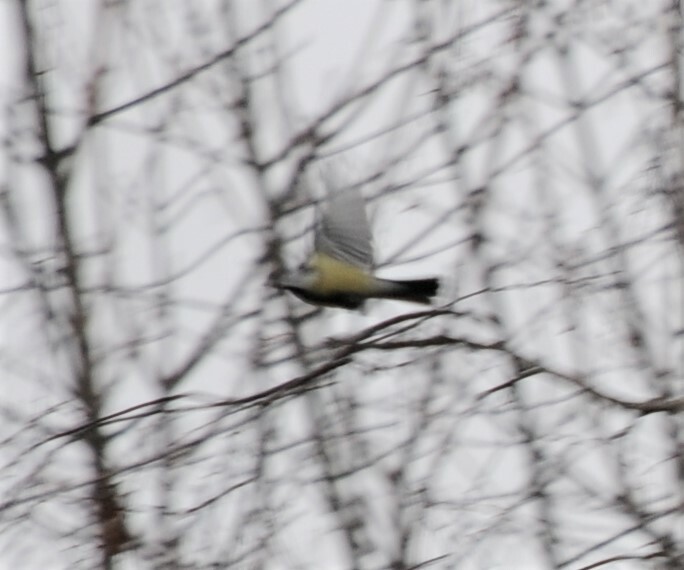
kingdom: Animalia
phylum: Chordata
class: Aves
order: Passeriformes
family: Paridae
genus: Parus
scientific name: Parus major
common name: Great tit
